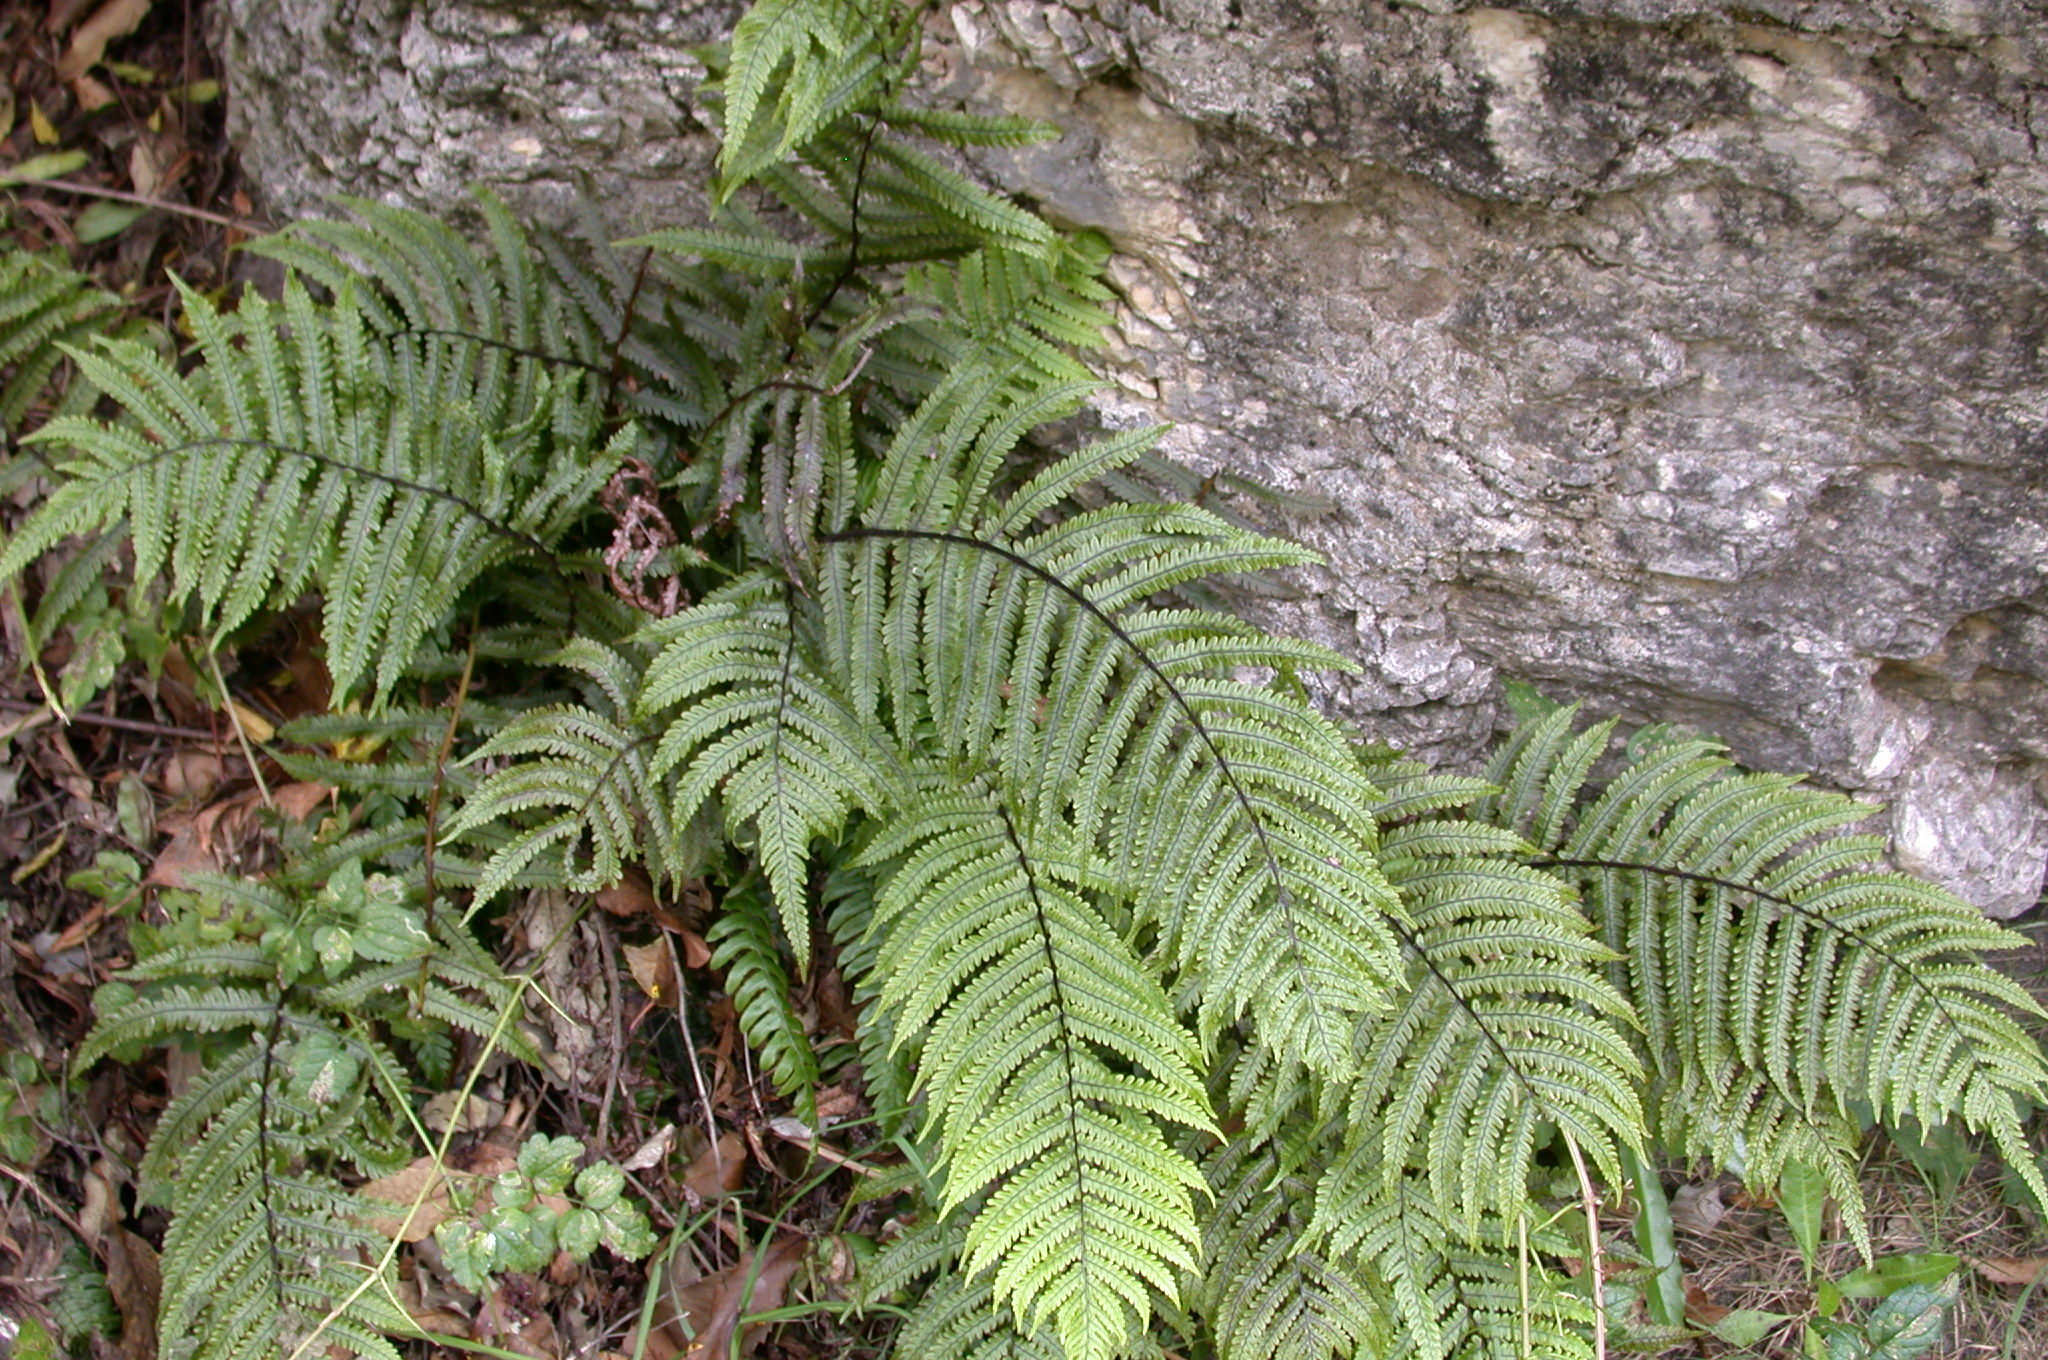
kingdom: Plantae
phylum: Tracheophyta
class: Polypodiopsida
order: Polypodiales
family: Thelypteridaceae
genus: Pakau
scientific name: Pakau pennigera
